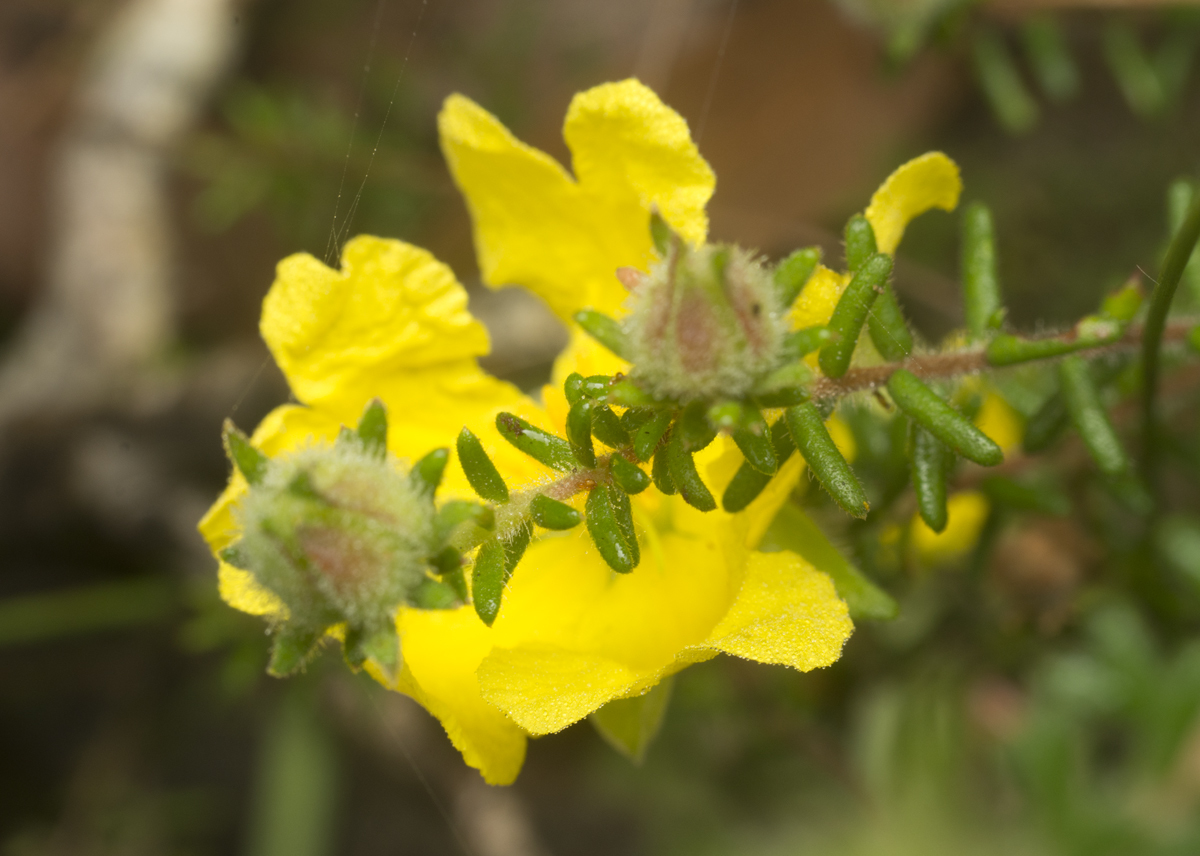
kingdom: Plantae
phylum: Tracheophyta
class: Magnoliopsida
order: Dilleniales
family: Dilleniaceae
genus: Hibbertia
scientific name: Hibbertia vestita
